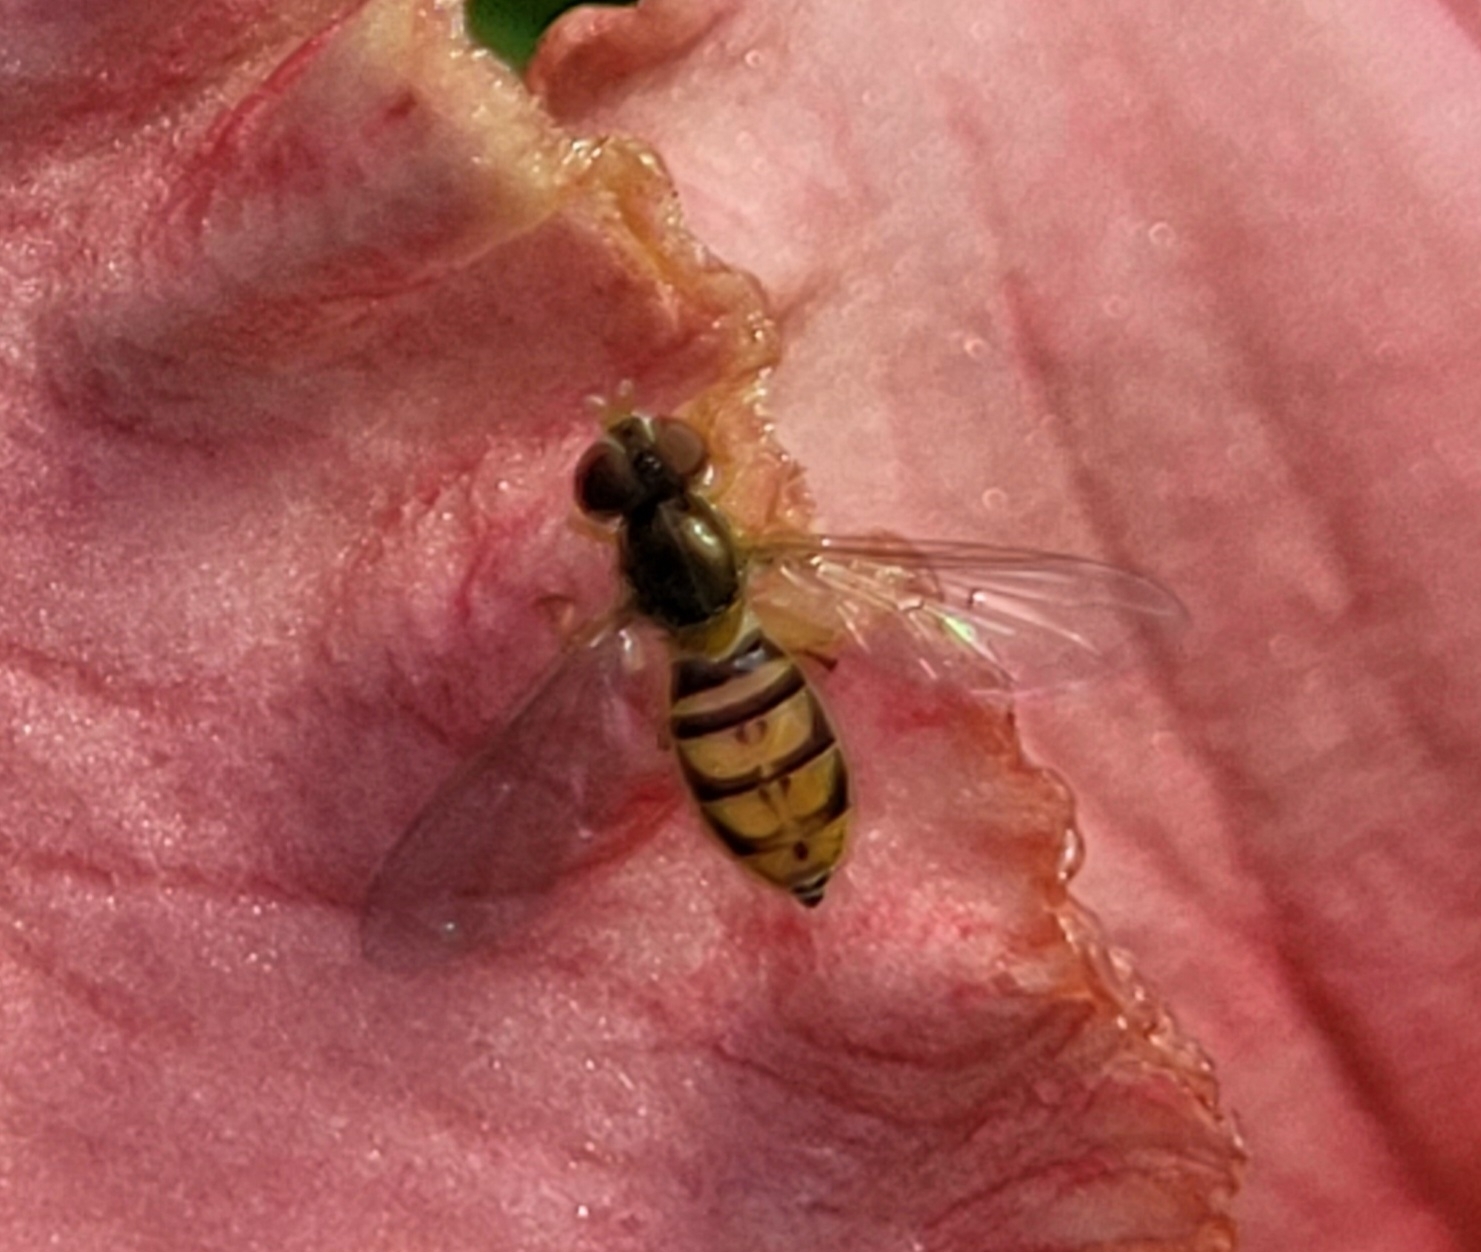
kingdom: Animalia
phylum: Arthropoda
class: Insecta
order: Diptera
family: Syrphidae
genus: Toxomerus
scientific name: Toxomerus marginatus
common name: Syrphid fly
